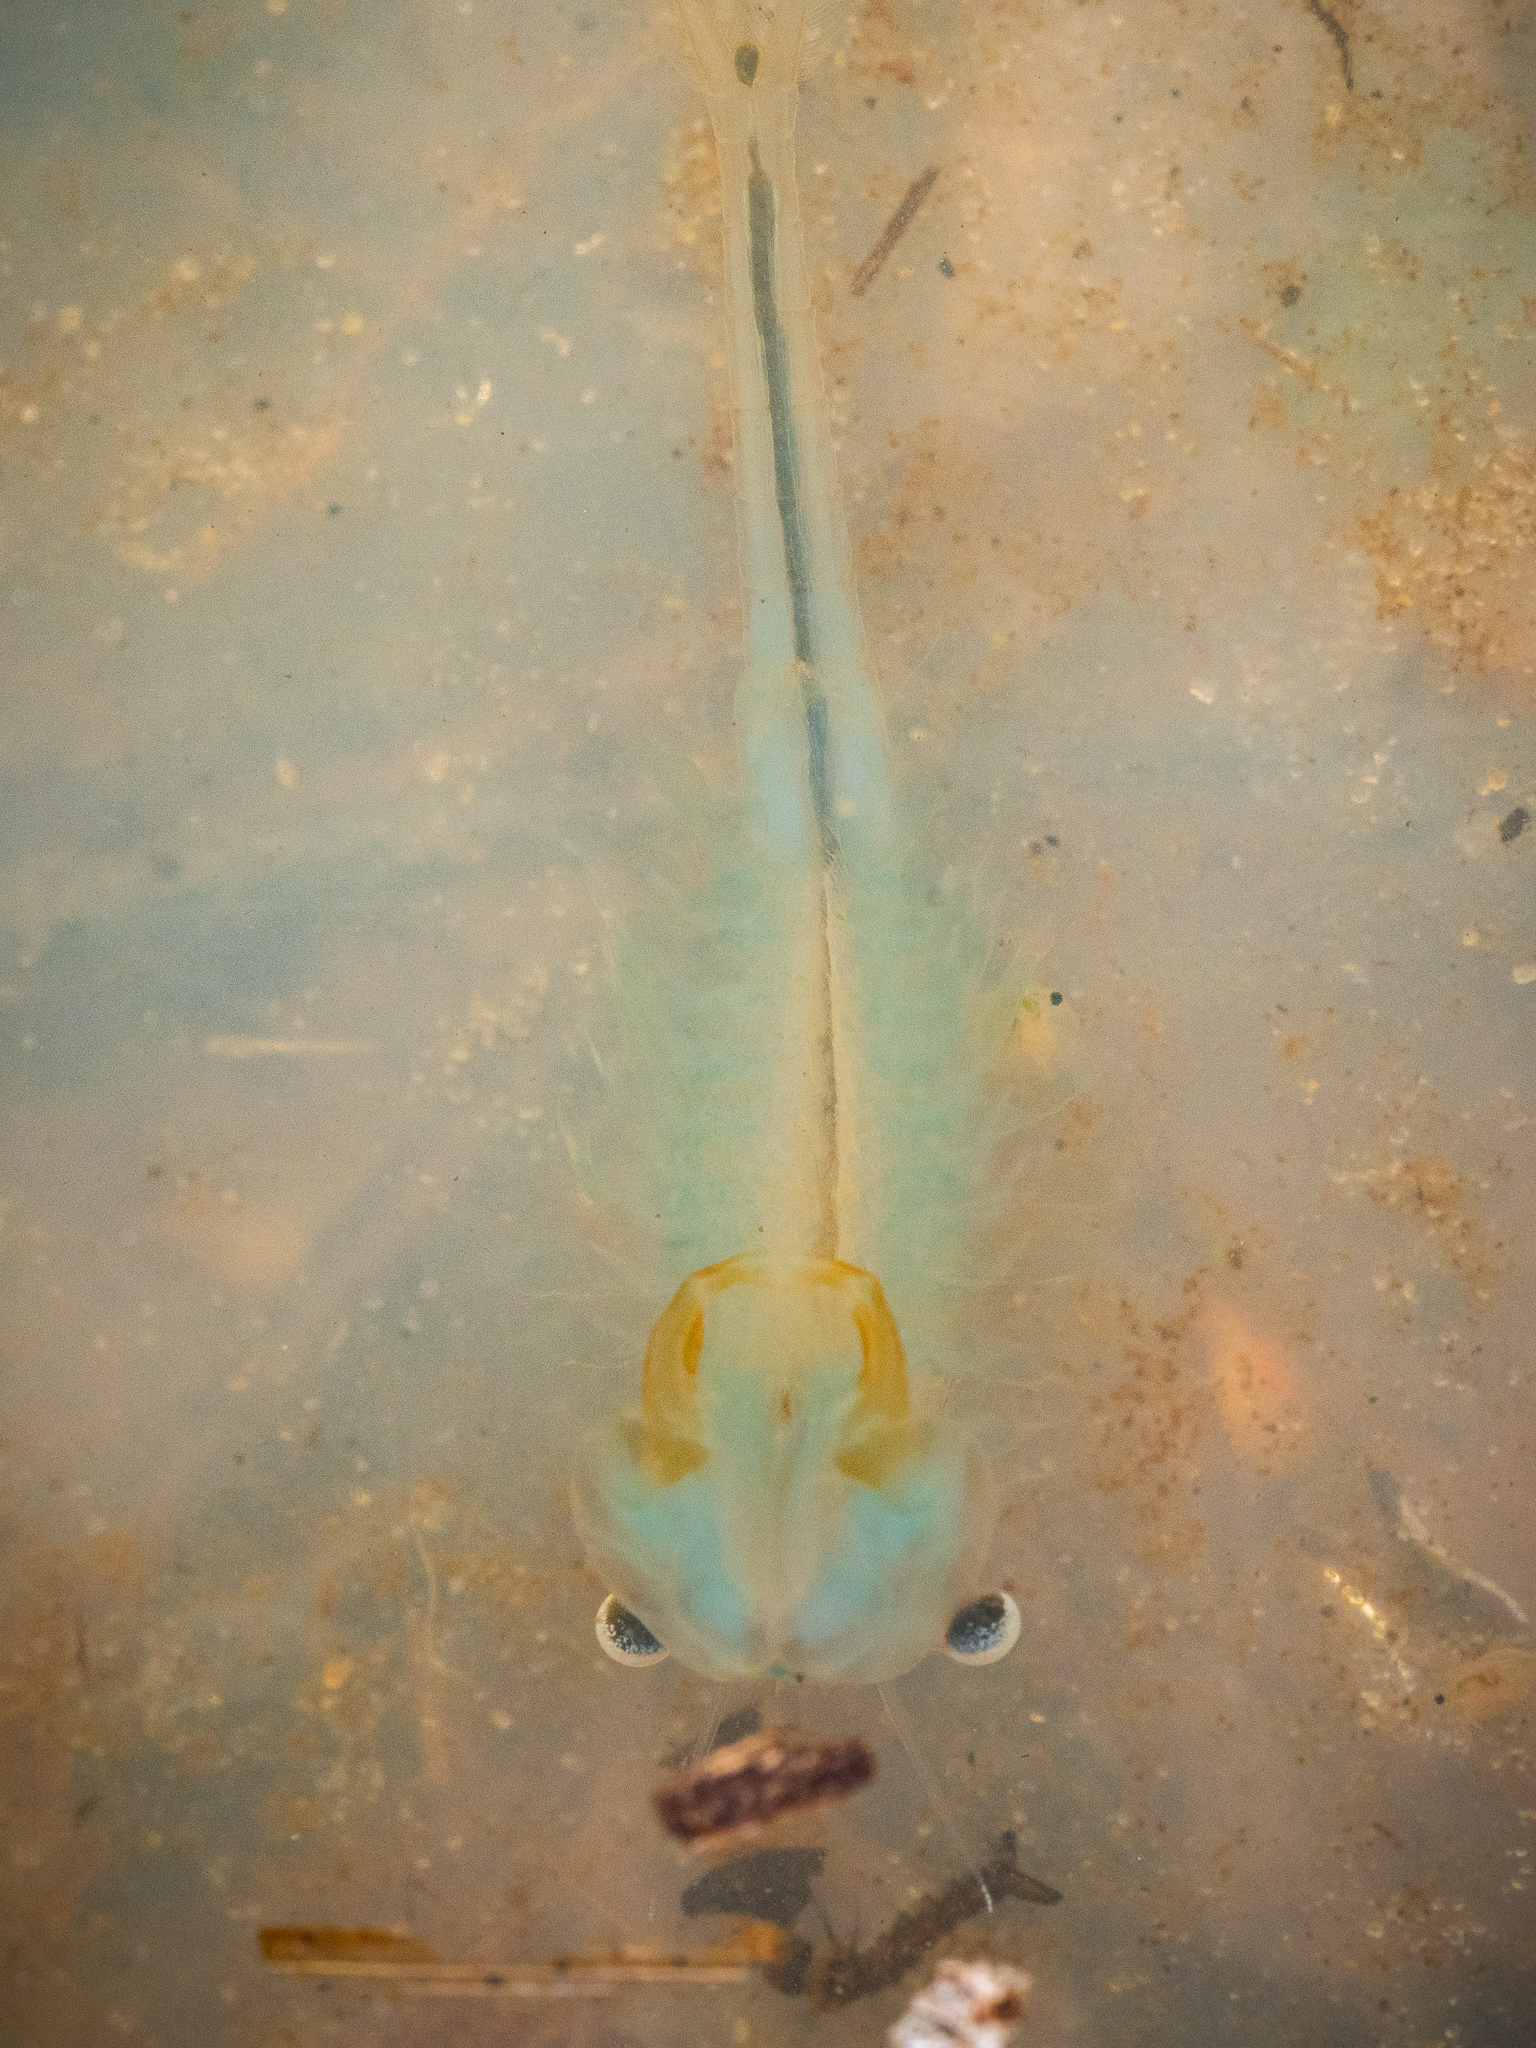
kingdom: Animalia
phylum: Arthropoda
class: Branchiopoda
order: Anostraca
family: Chirocephalidae
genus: Eubranchipus
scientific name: Eubranchipus grubii
